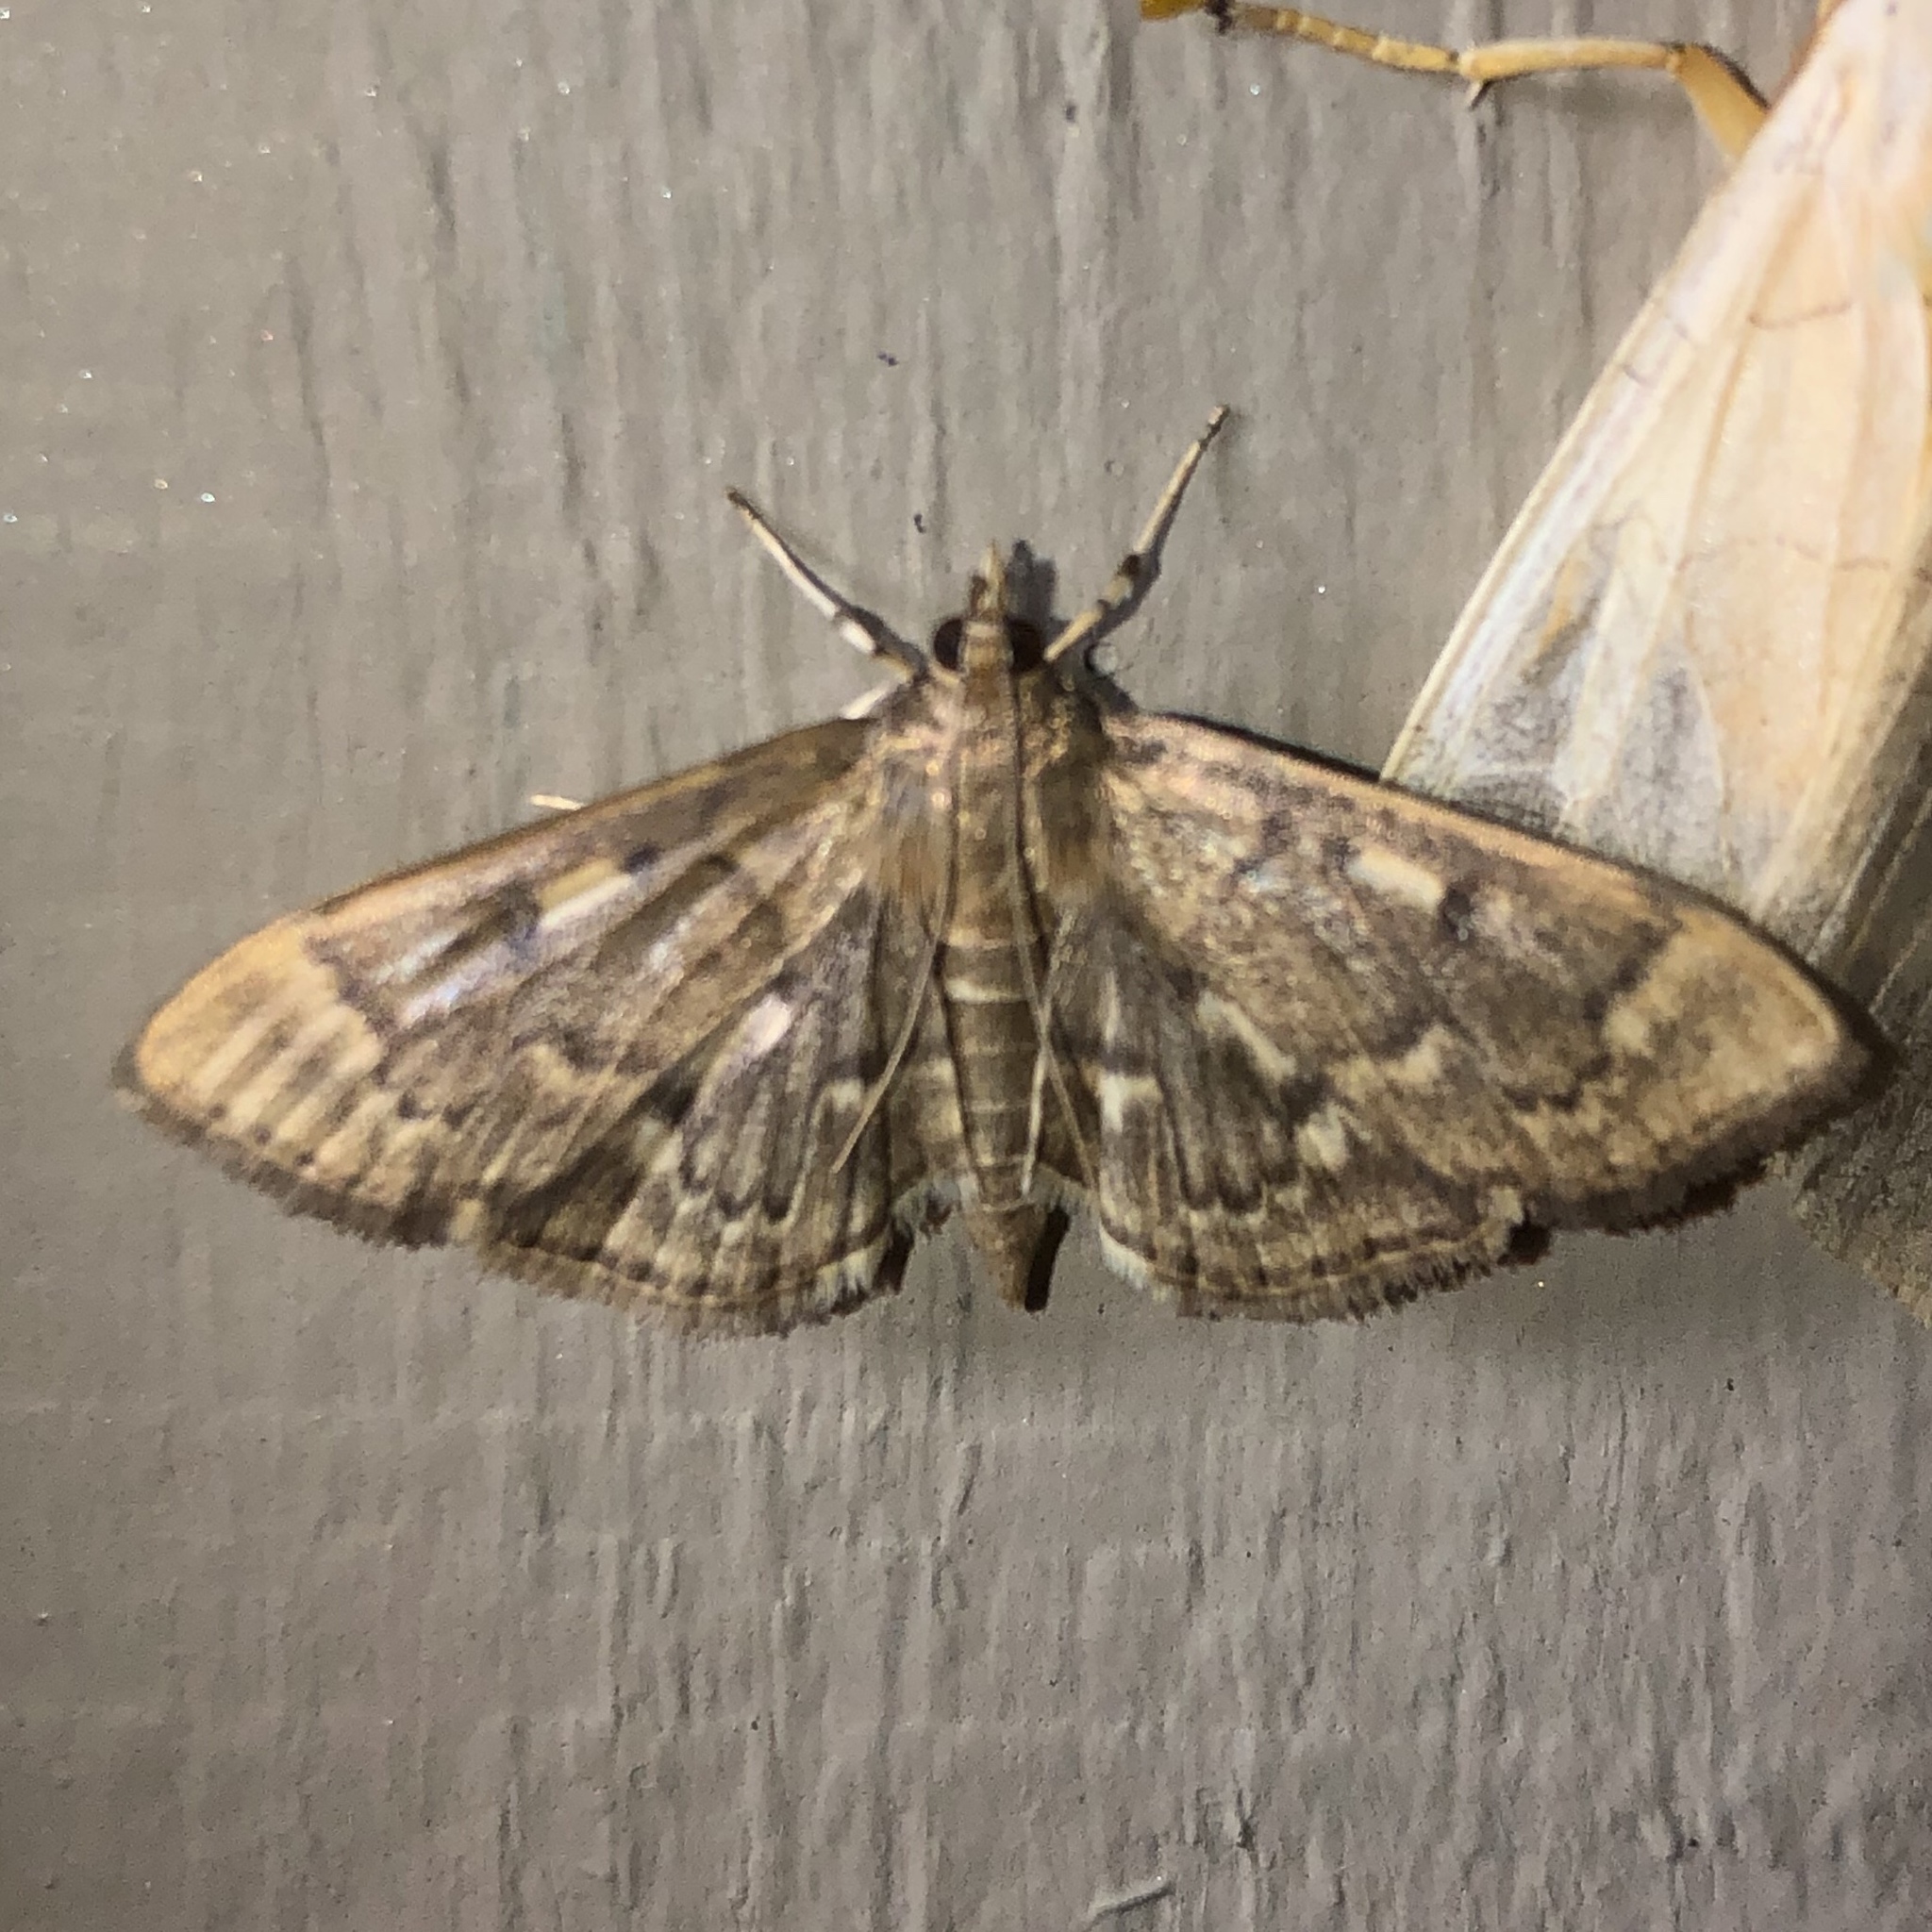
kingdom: Animalia
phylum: Arthropoda
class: Insecta
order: Lepidoptera
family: Crambidae
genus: Herpetogramma
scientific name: Herpetogramma aeglealis
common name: Serpentine webworm moth
